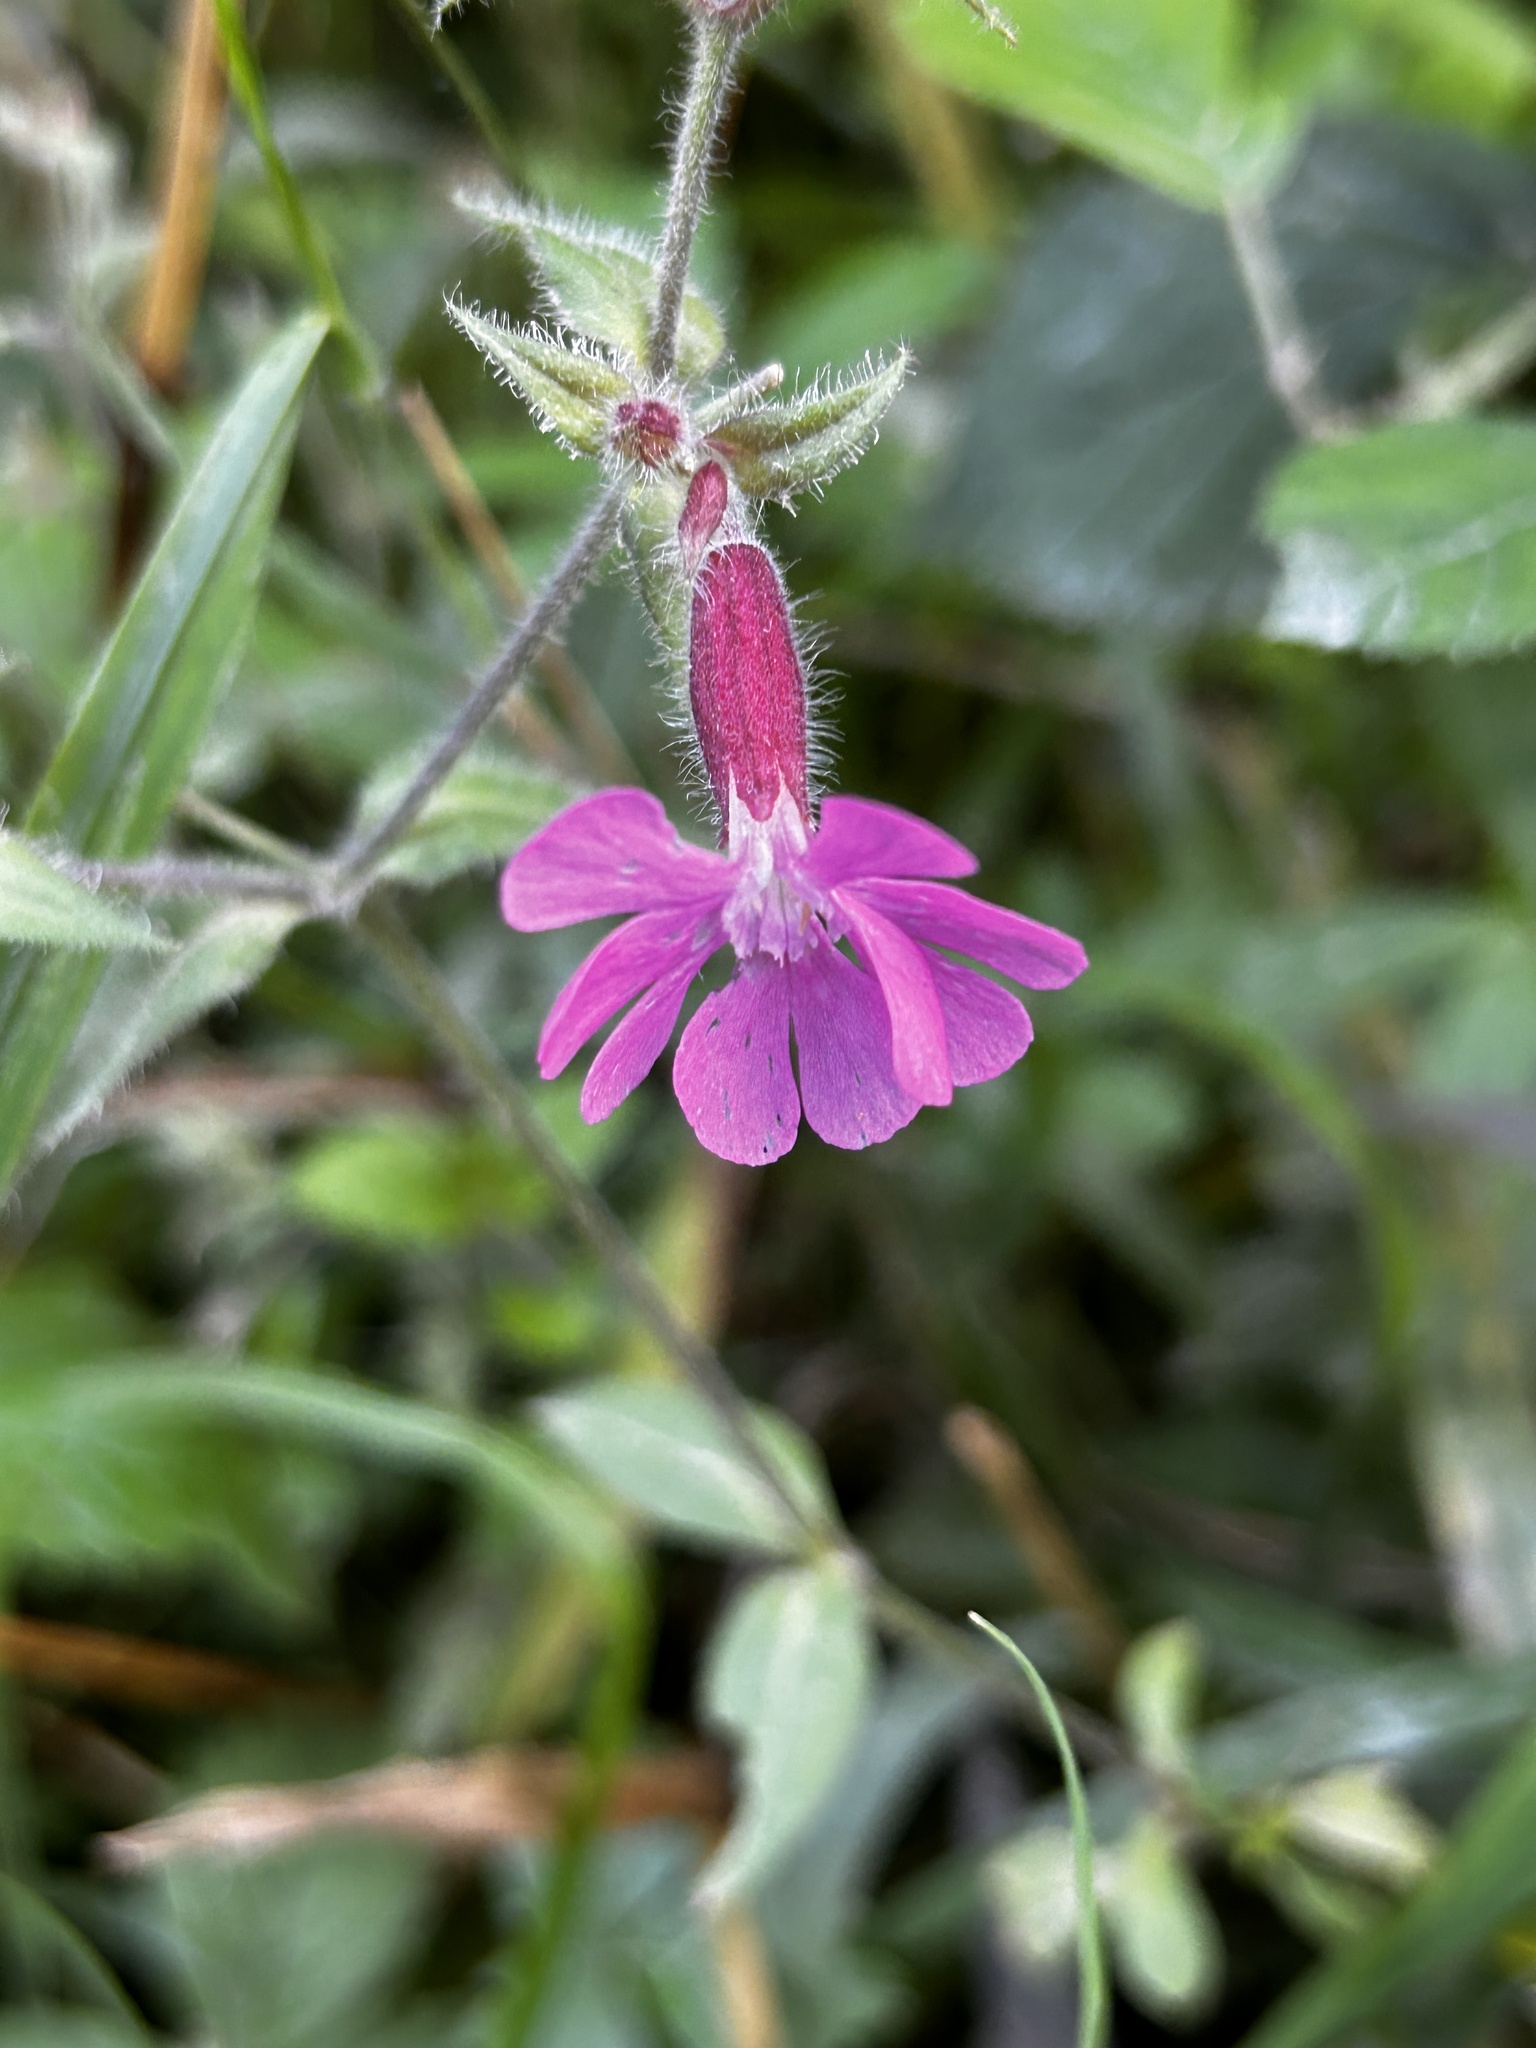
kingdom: Plantae
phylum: Tracheophyta
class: Magnoliopsida
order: Caryophyllales
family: Caryophyllaceae
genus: Silene
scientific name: Silene dioica
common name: Red campion
